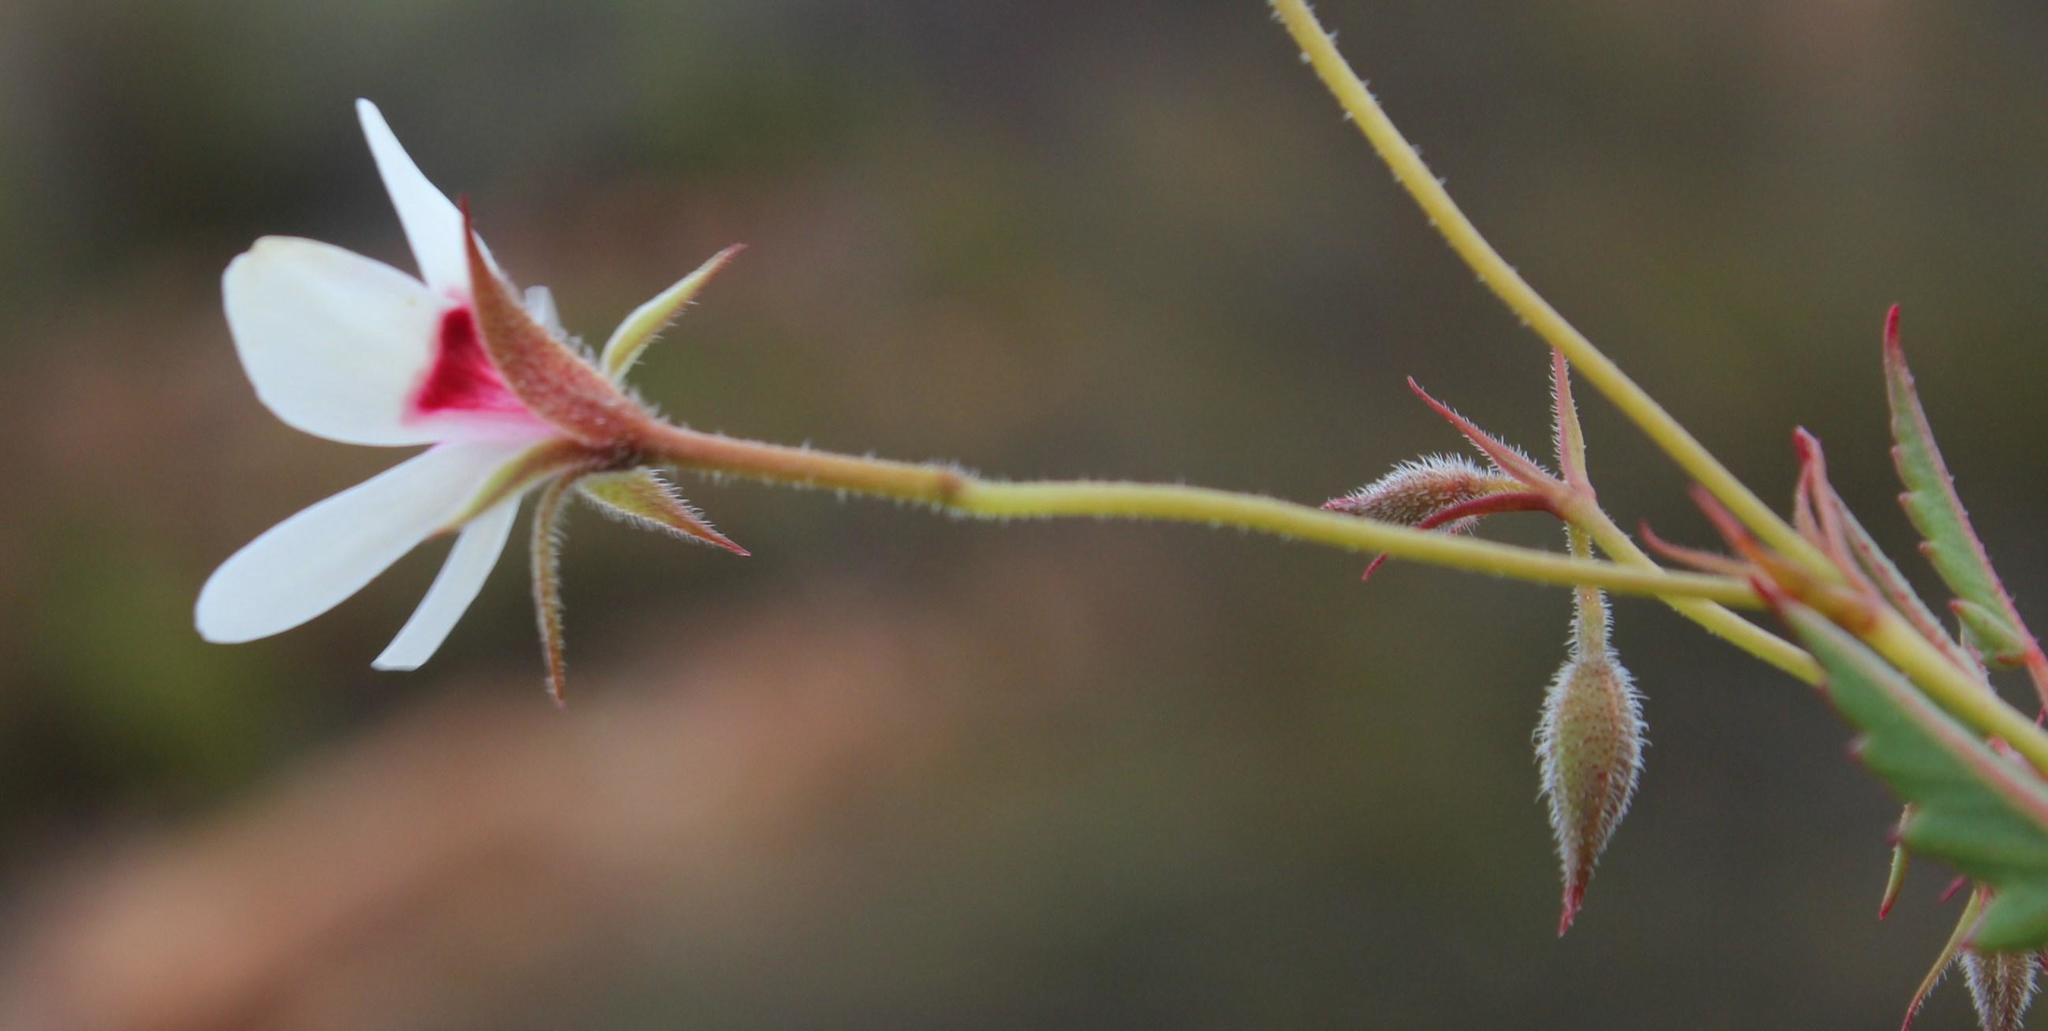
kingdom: Plantae
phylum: Tracheophyta
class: Magnoliopsida
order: Geraniales
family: Geraniaceae
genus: Pelargonium
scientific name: Pelargonium setulosum
